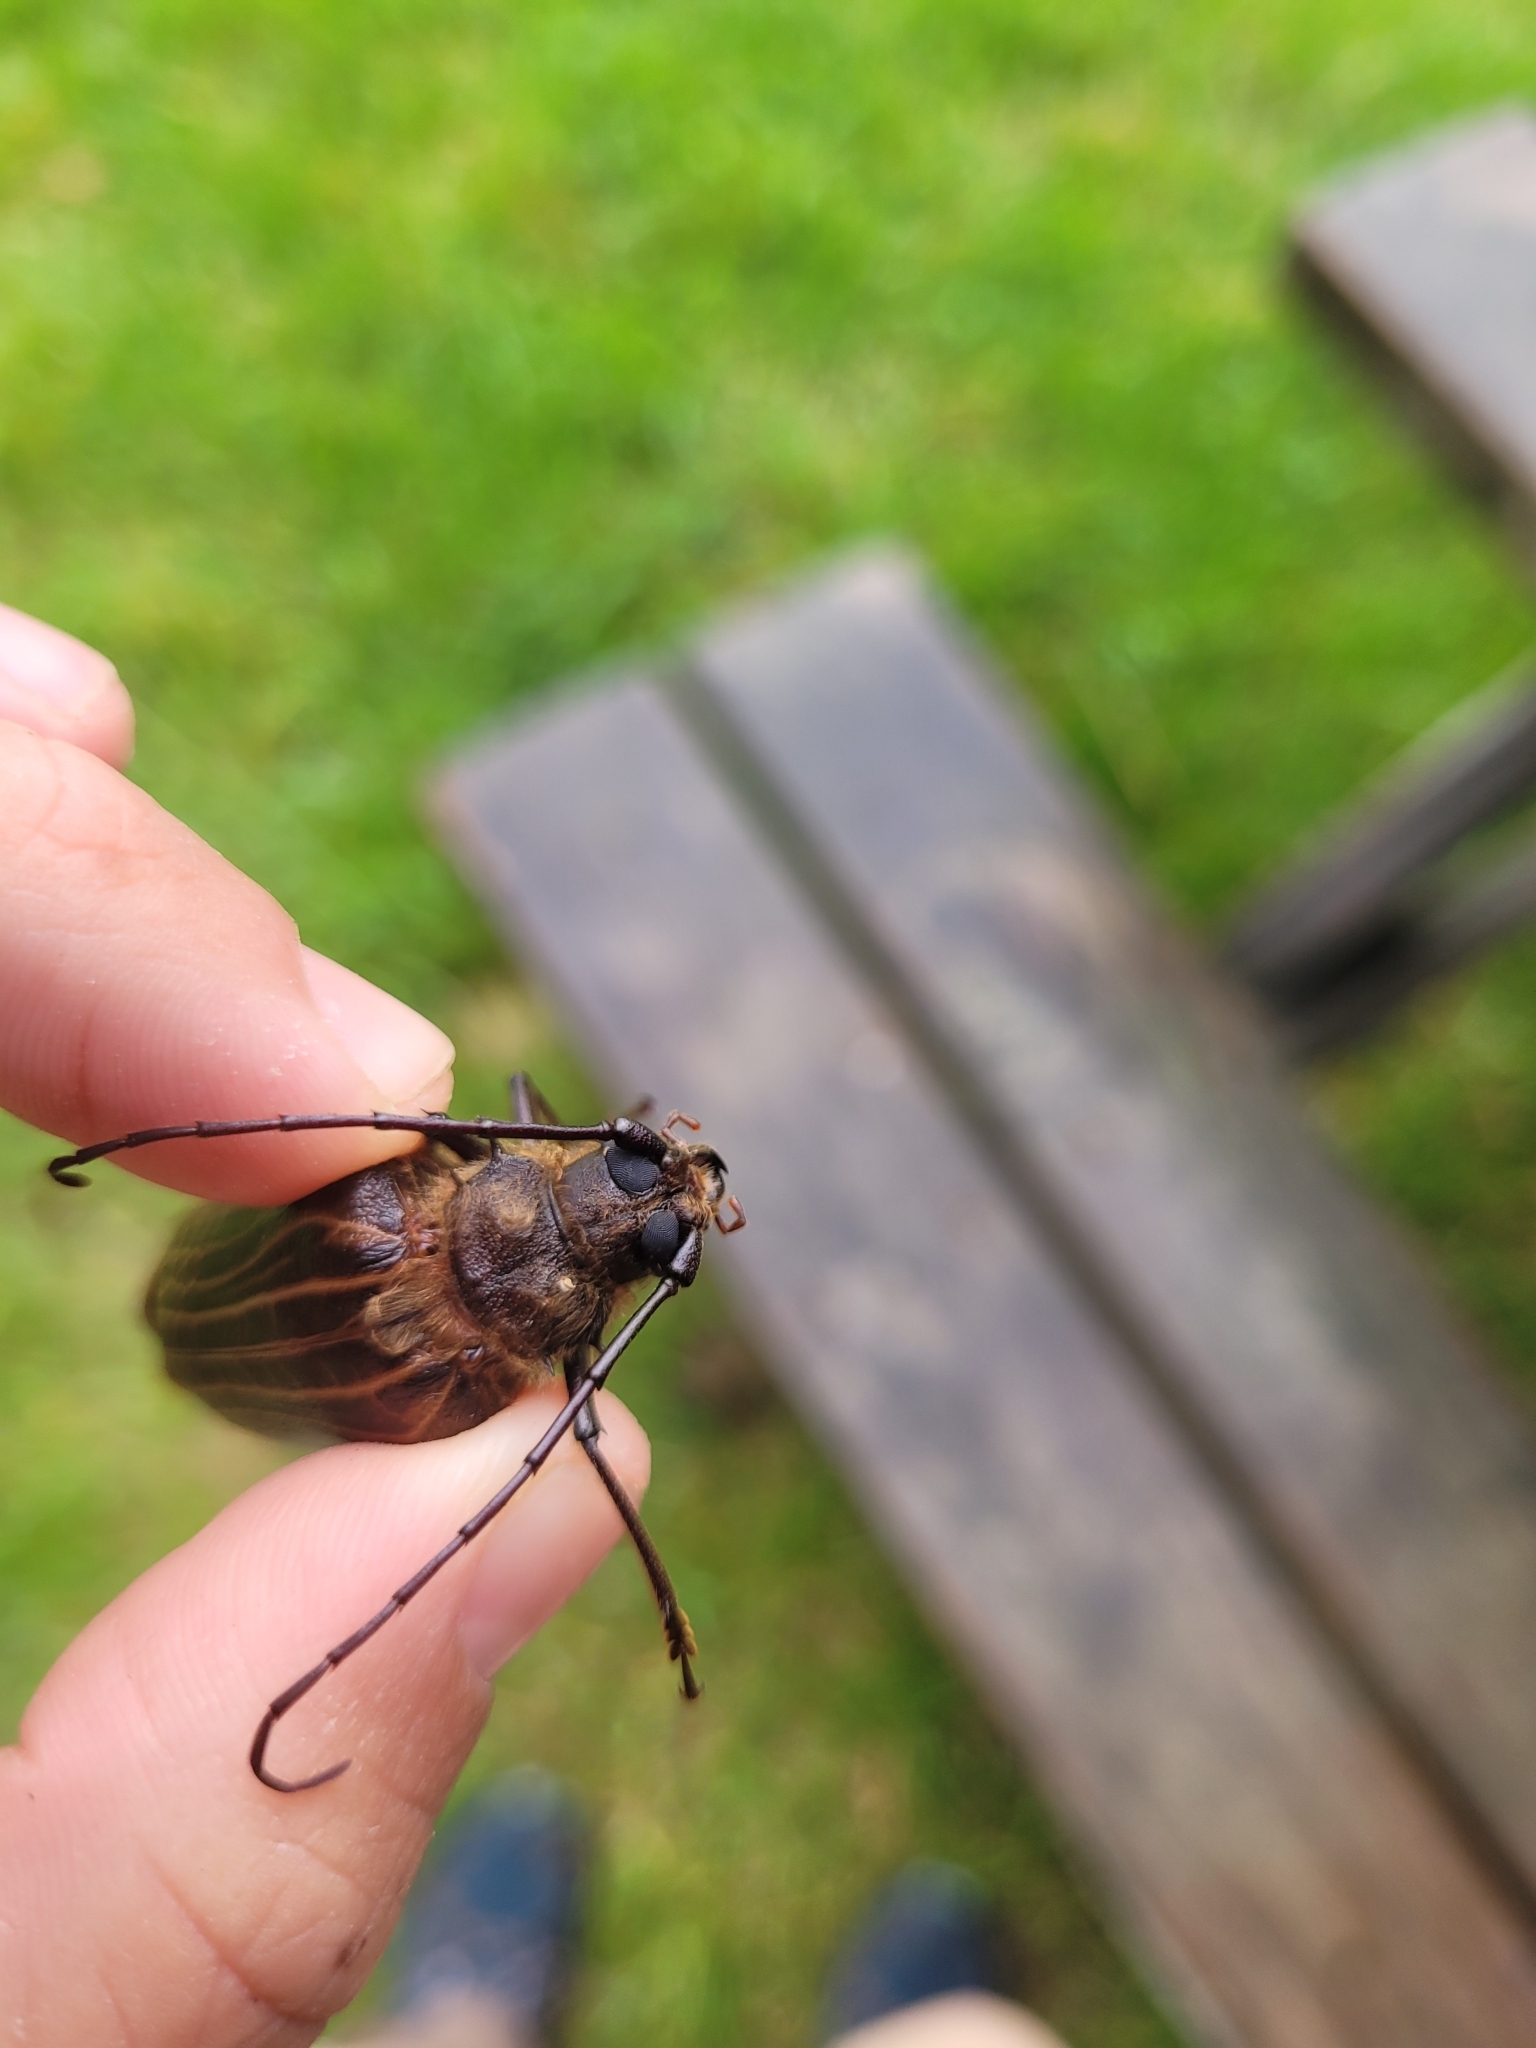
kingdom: Animalia
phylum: Arthropoda
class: Insecta
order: Coleoptera
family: Cerambycidae
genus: Prionoplus
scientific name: Prionoplus reticularis
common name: Huhu beetle
